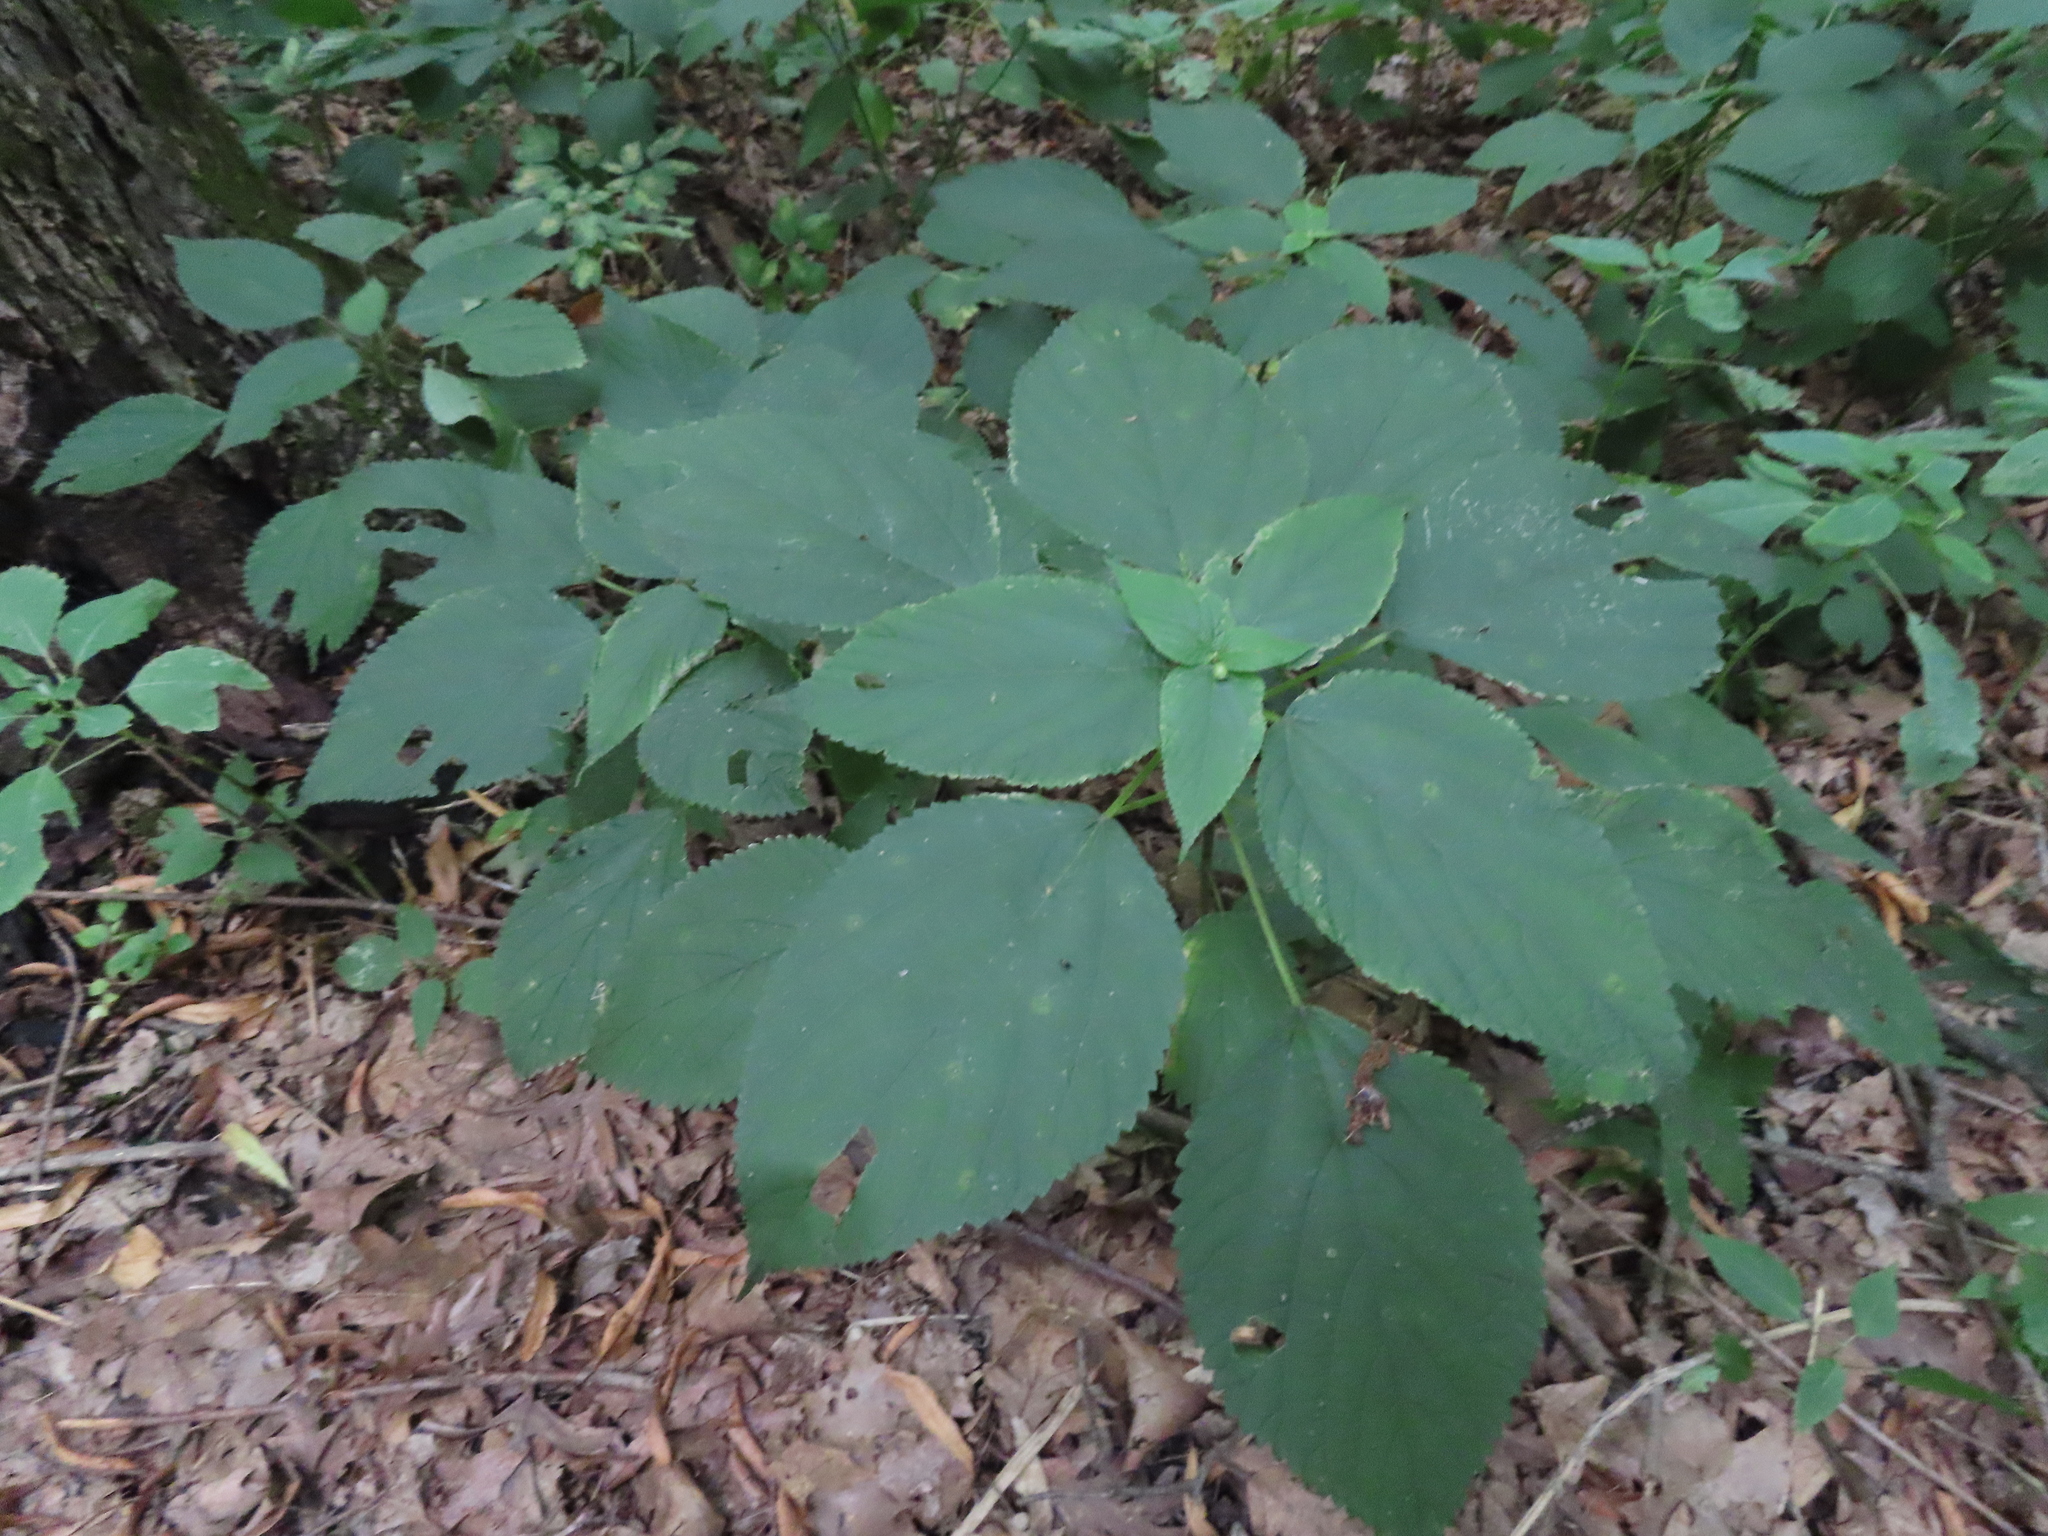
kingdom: Plantae
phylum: Tracheophyta
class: Magnoliopsida
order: Rosales
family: Urticaceae
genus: Laportea
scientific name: Laportea canadensis
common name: Canada nettle
